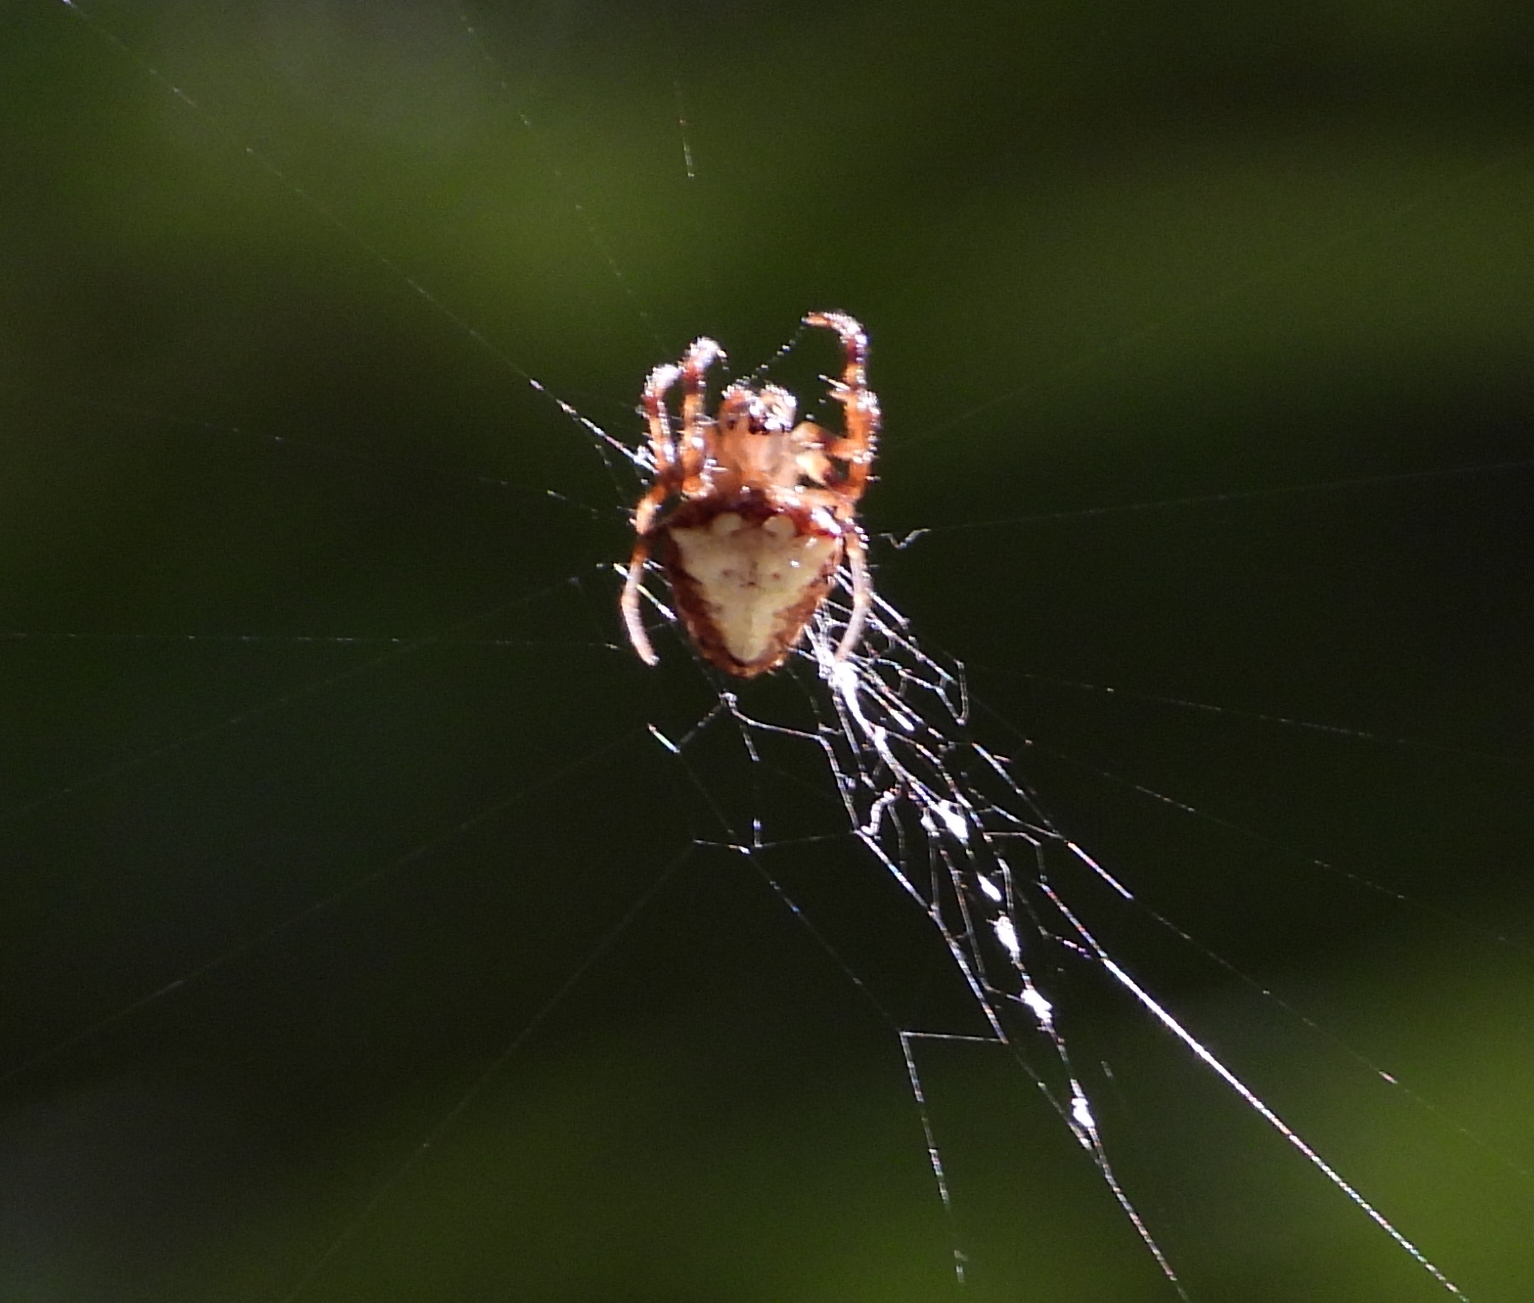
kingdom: Animalia
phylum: Arthropoda
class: Arachnida
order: Araneae
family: Araneidae
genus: Verrucosa
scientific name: Verrucosa arenata
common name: Orb weavers
